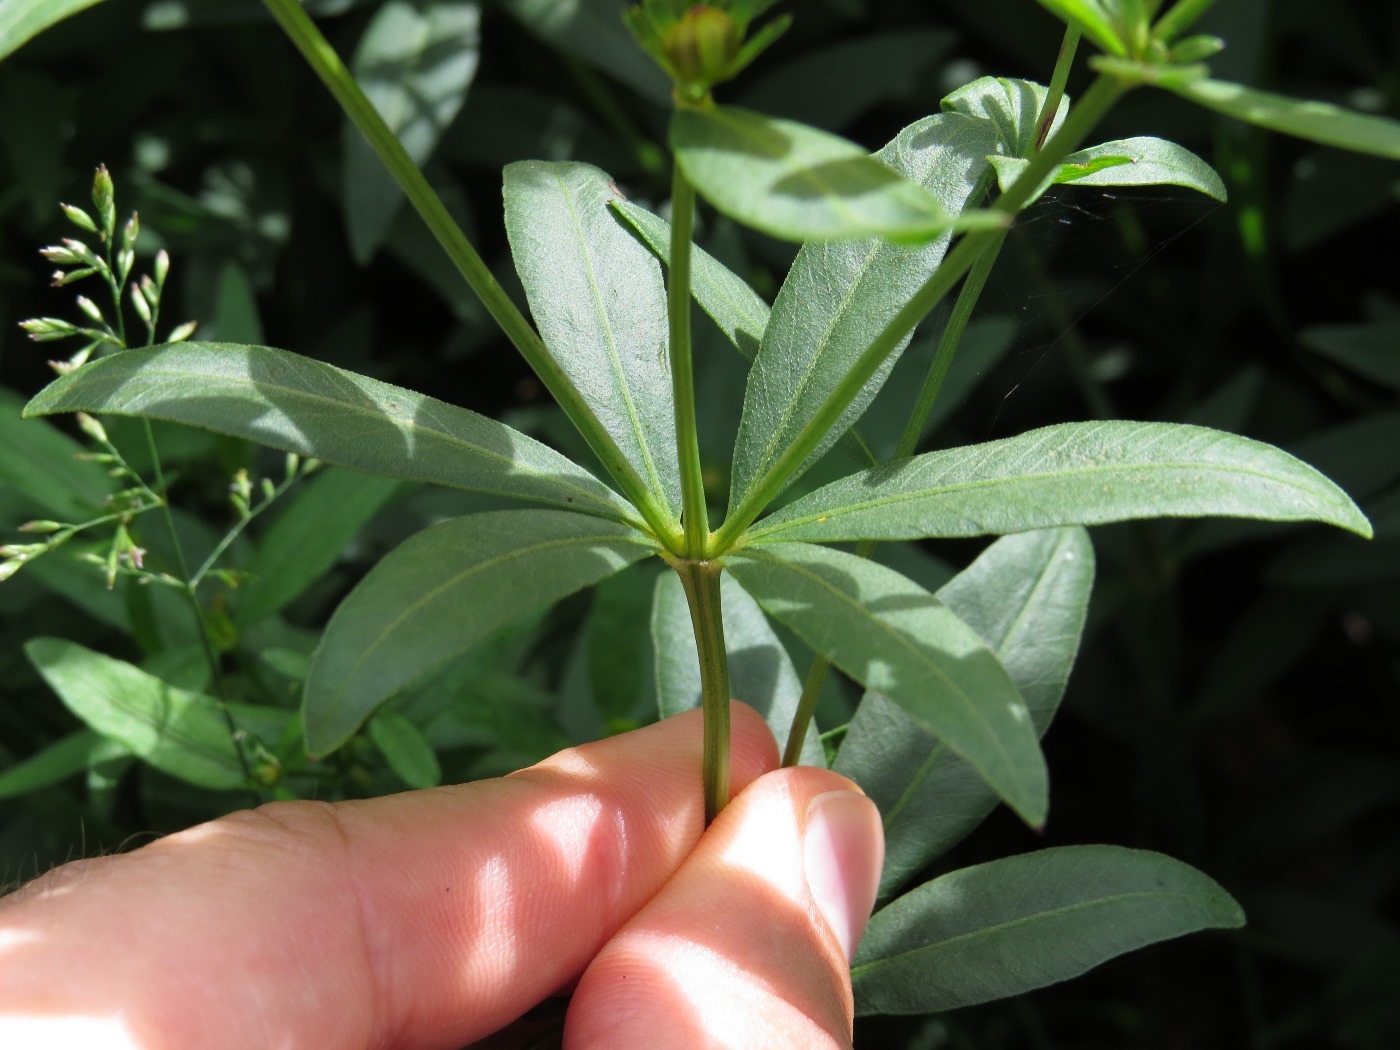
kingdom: Plantae
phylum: Tracheophyta
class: Magnoliopsida
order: Asterales
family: Asteraceae
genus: Coreopsis
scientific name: Coreopsis major
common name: Forest tickseed
